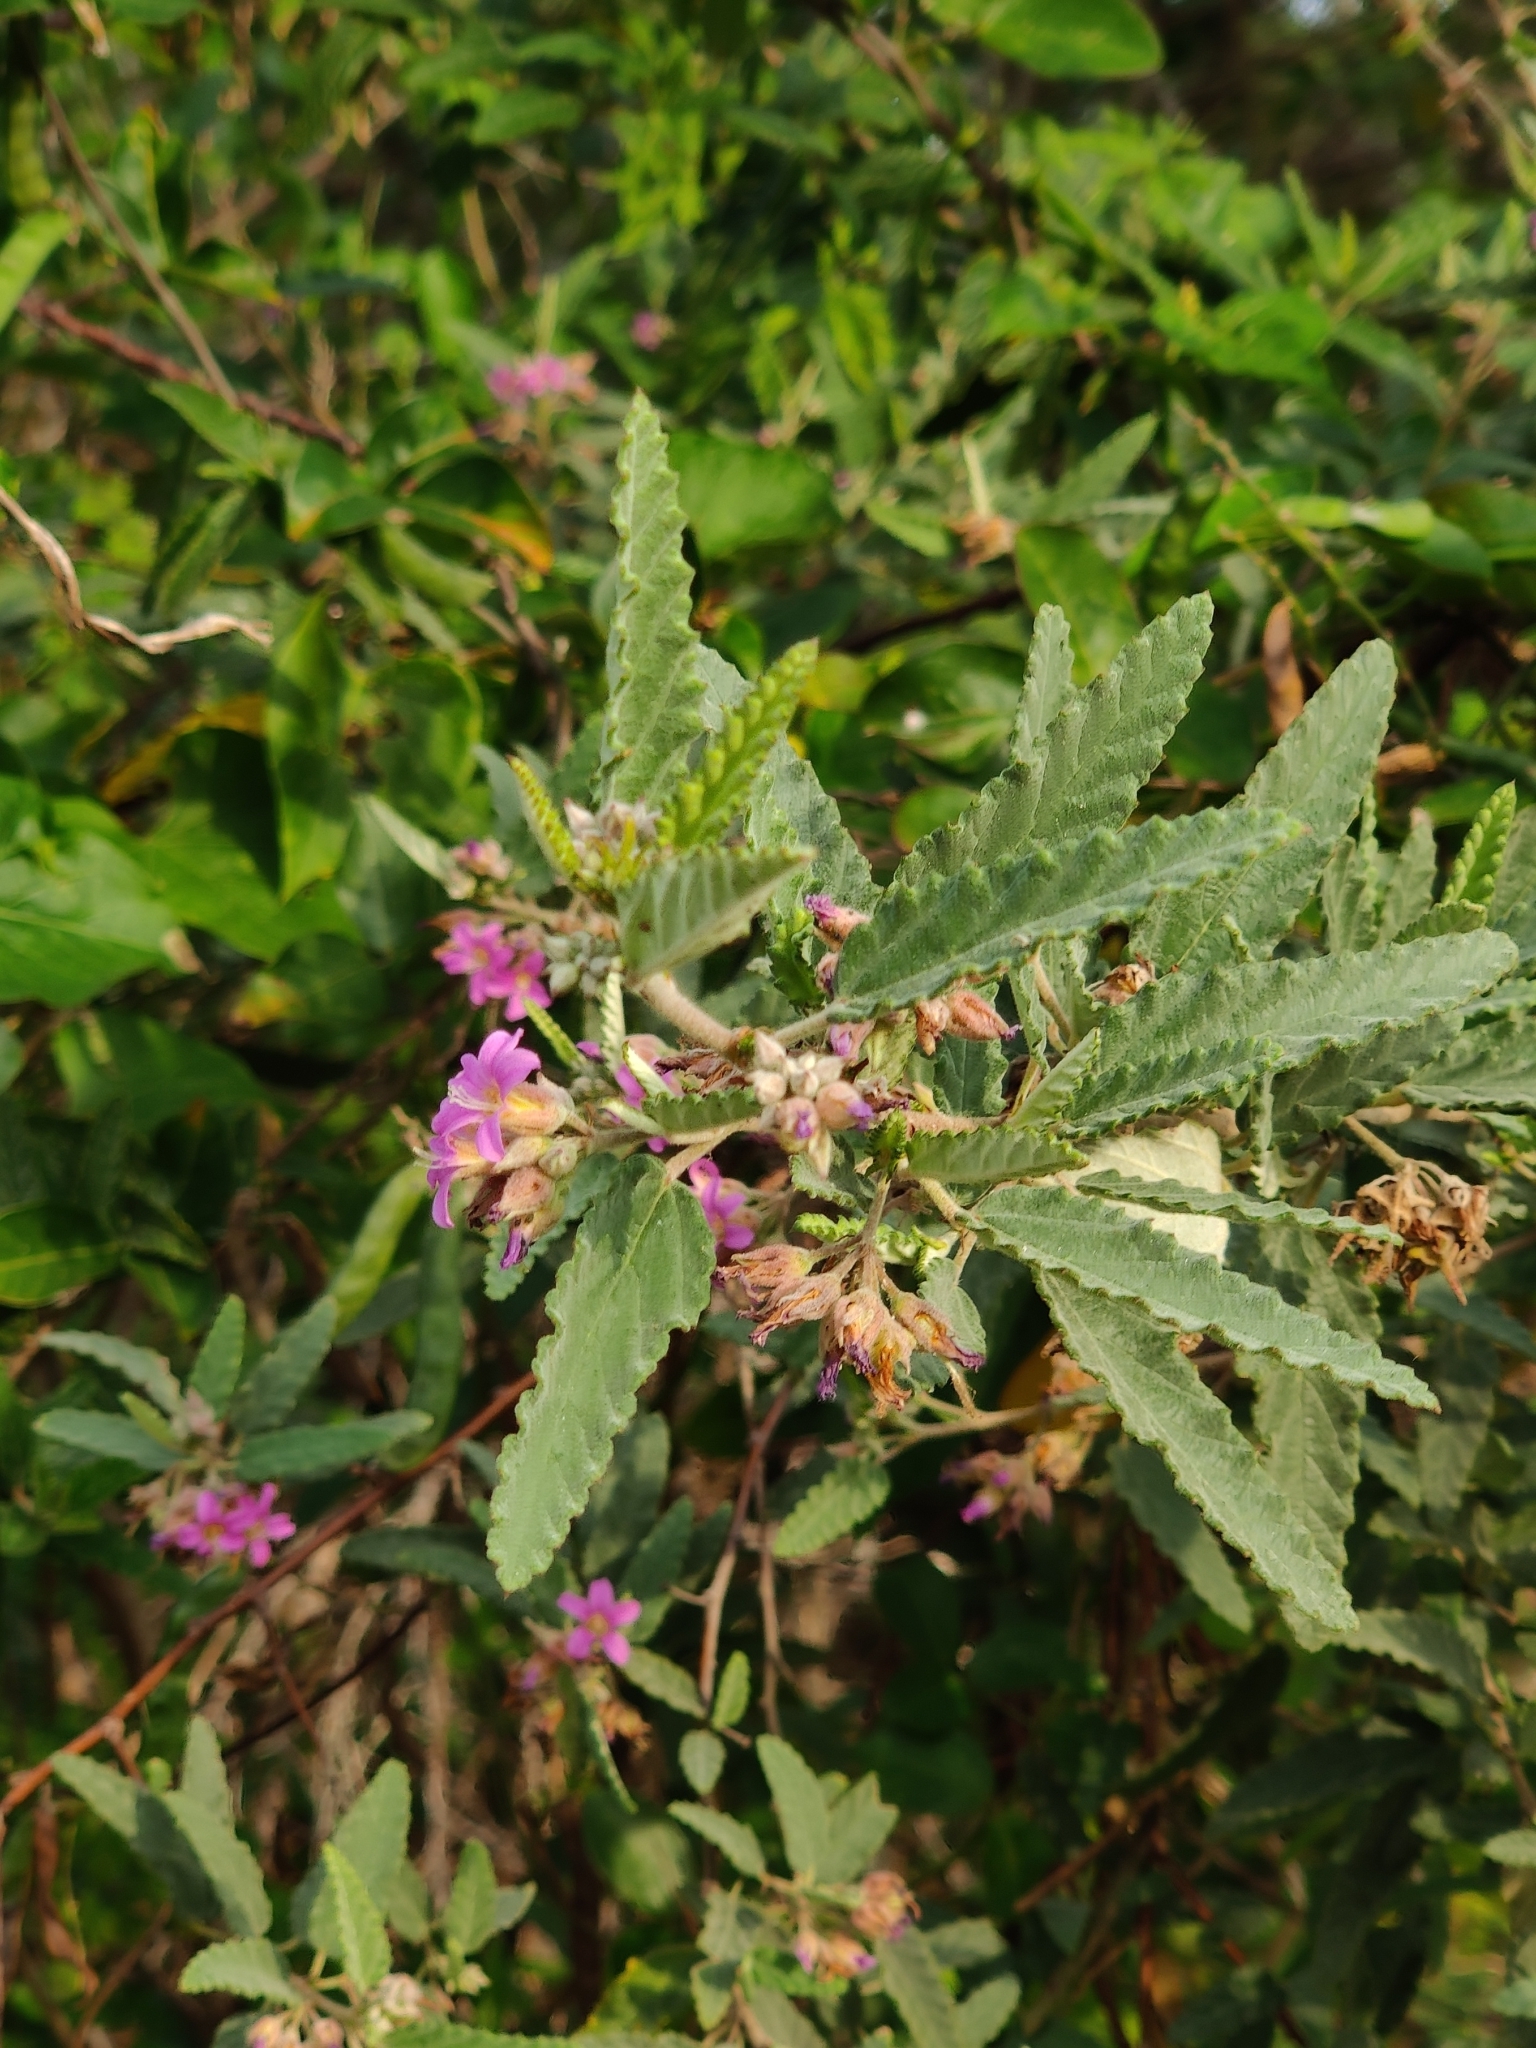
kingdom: Plantae
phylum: Tracheophyta
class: Magnoliopsida
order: Malvales
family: Malvaceae
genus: Melochia
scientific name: Melochia tomentosa
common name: Black torch
